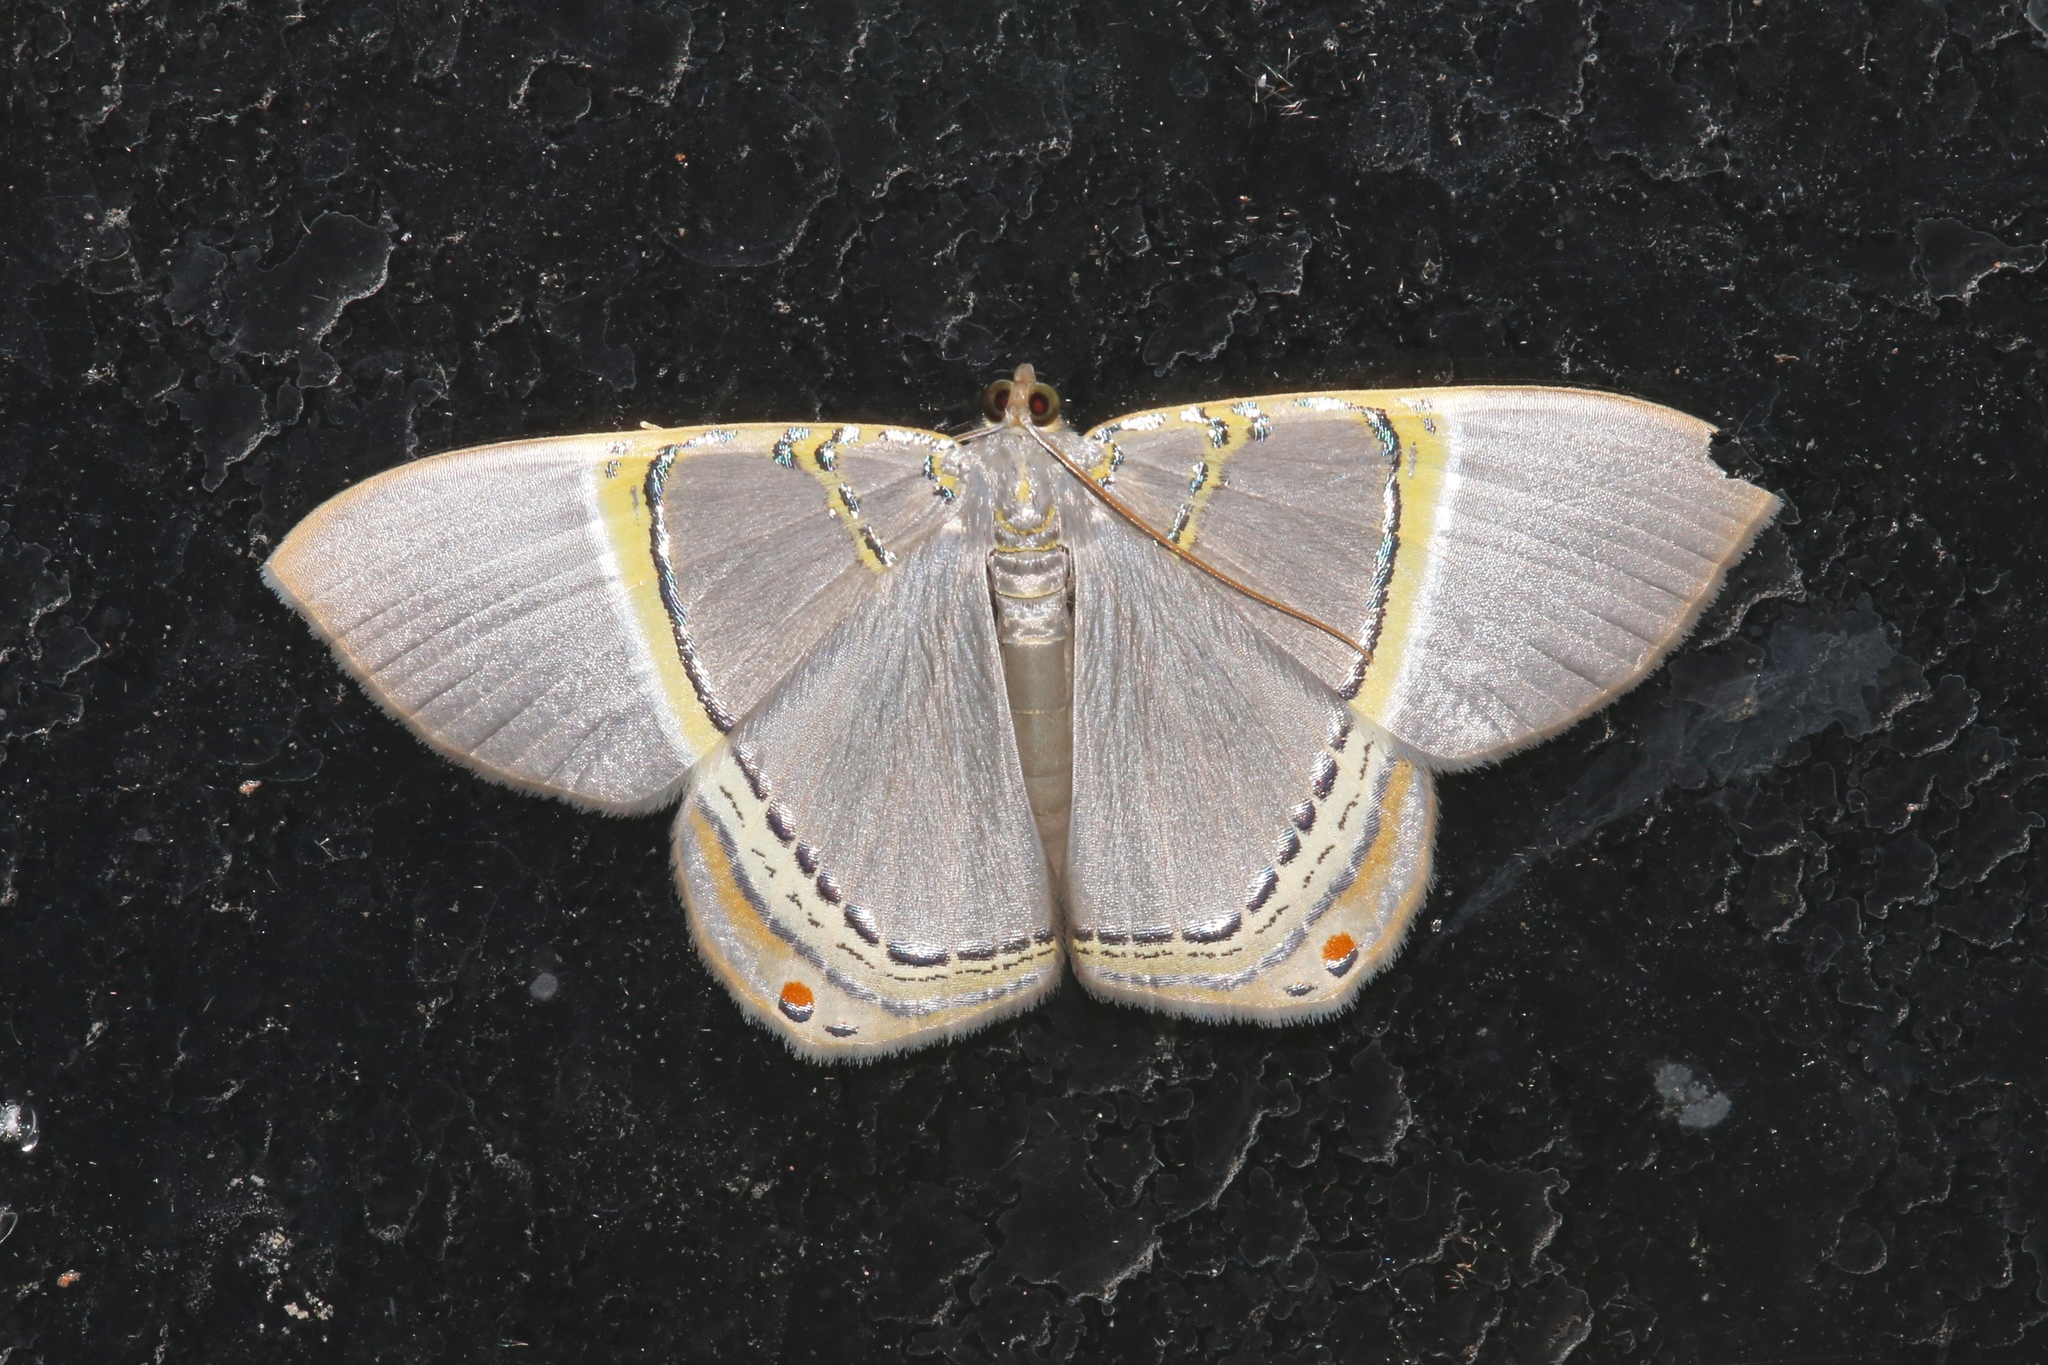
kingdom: Animalia
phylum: Arthropoda
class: Insecta
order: Lepidoptera
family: Geometridae
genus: Phrygionis
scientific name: Phrygionis privignaria
